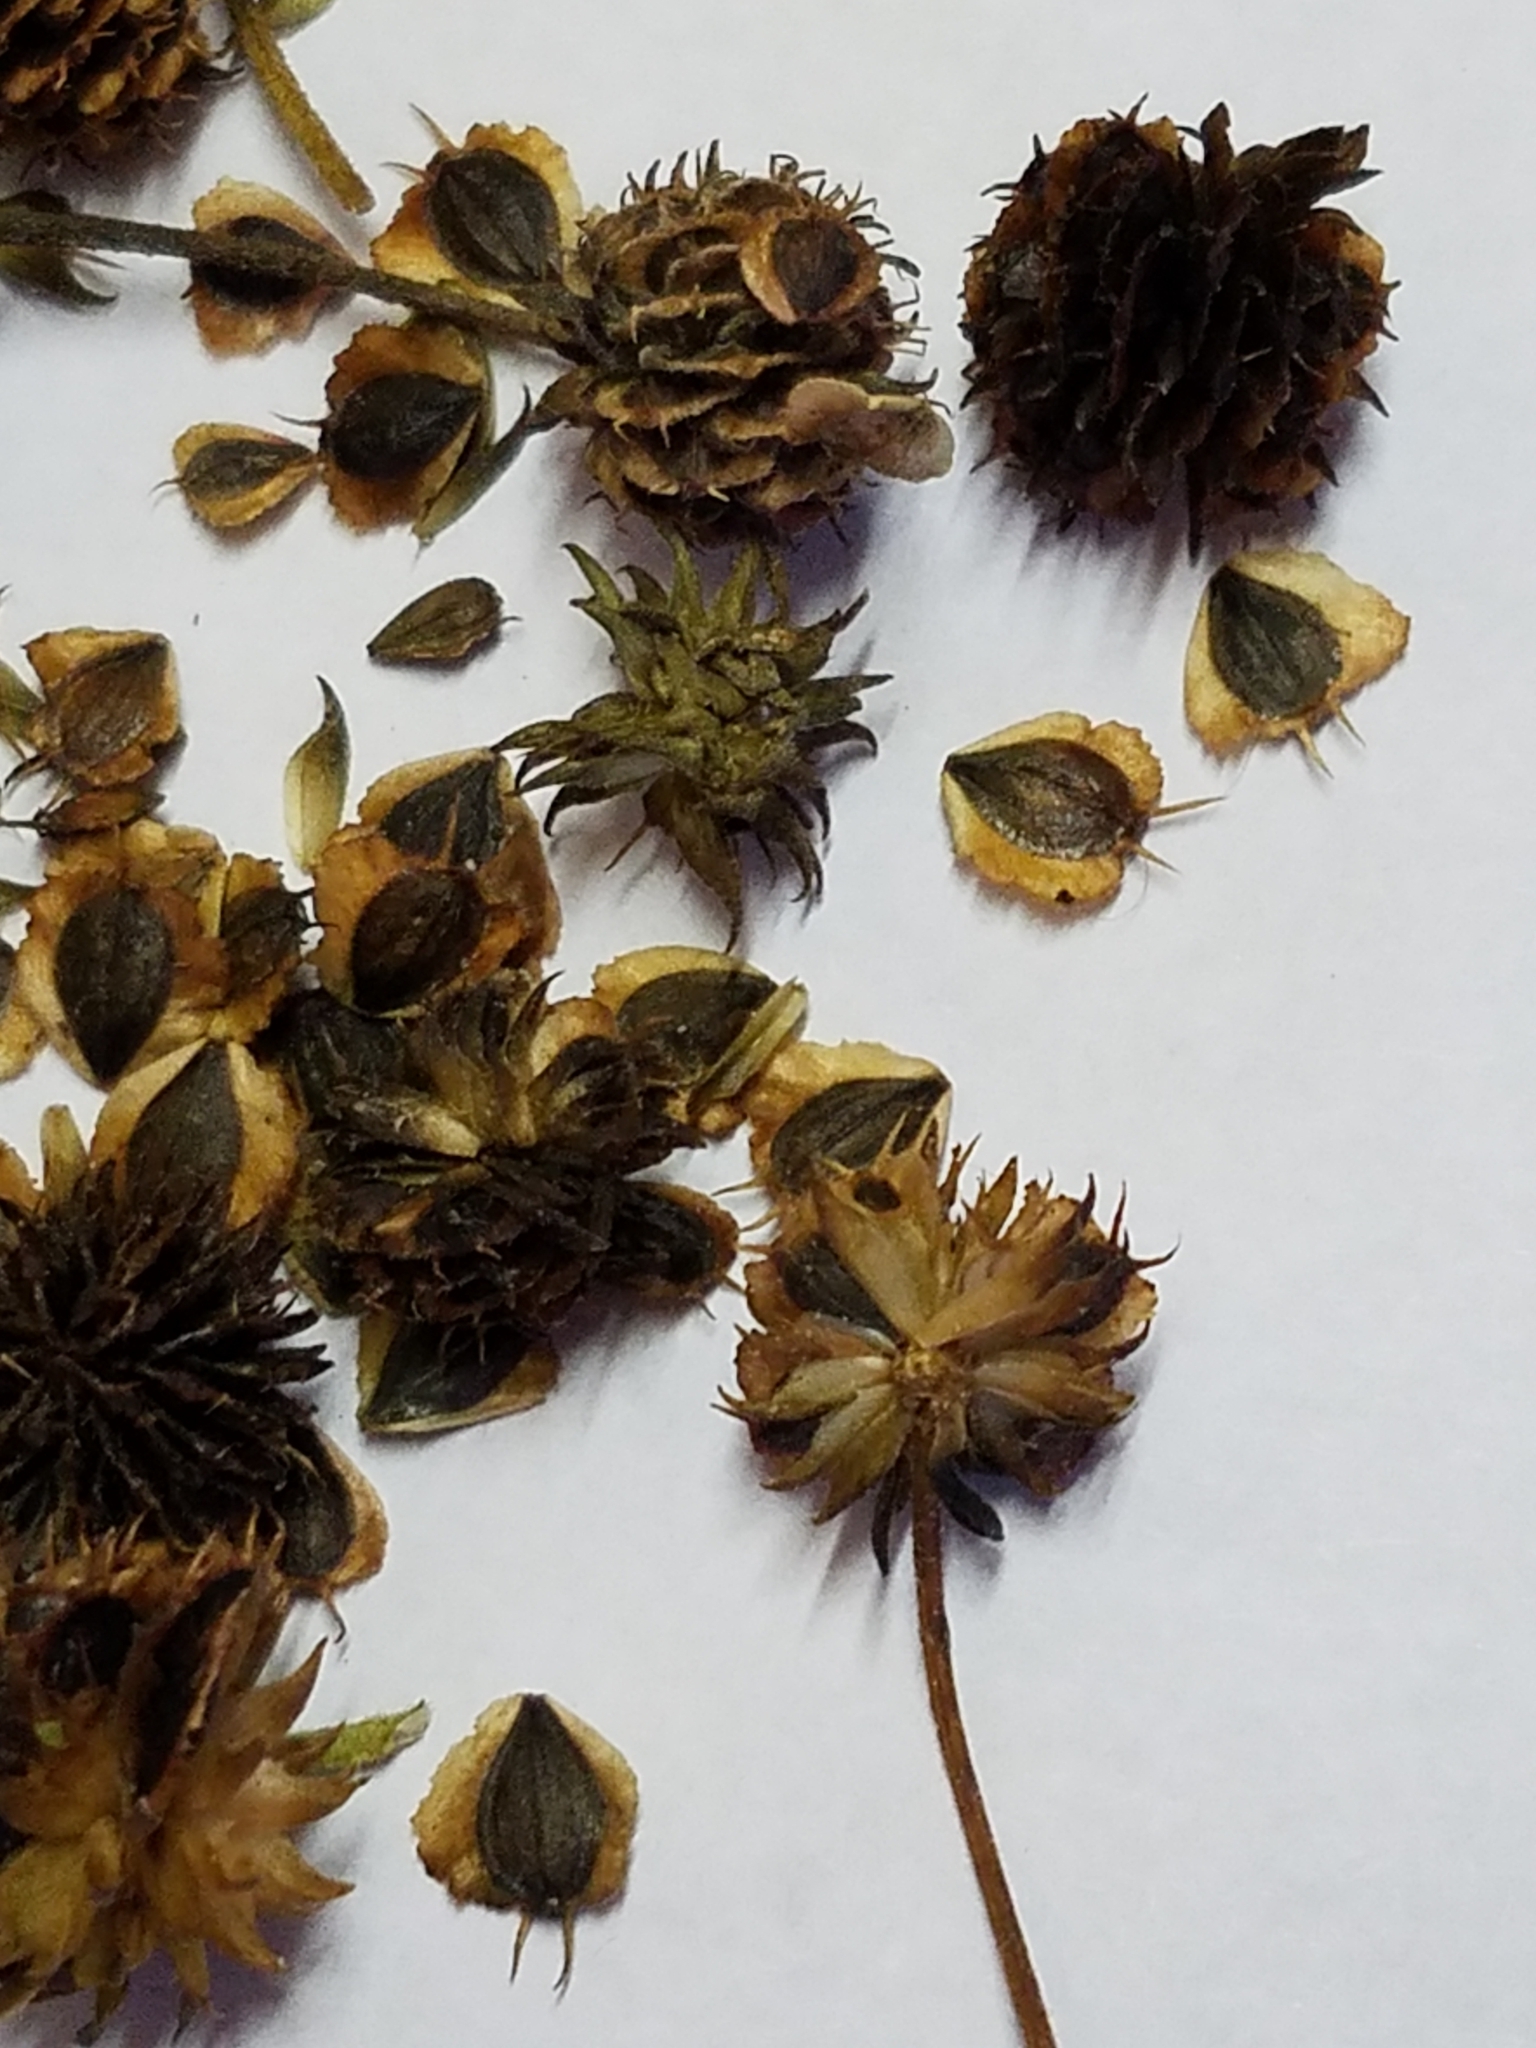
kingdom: Plantae
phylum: Tracheophyta
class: Magnoliopsida
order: Asterales
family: Asteraceae
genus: Verbesina
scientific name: Verbesina alternifolia
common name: Wingstem
